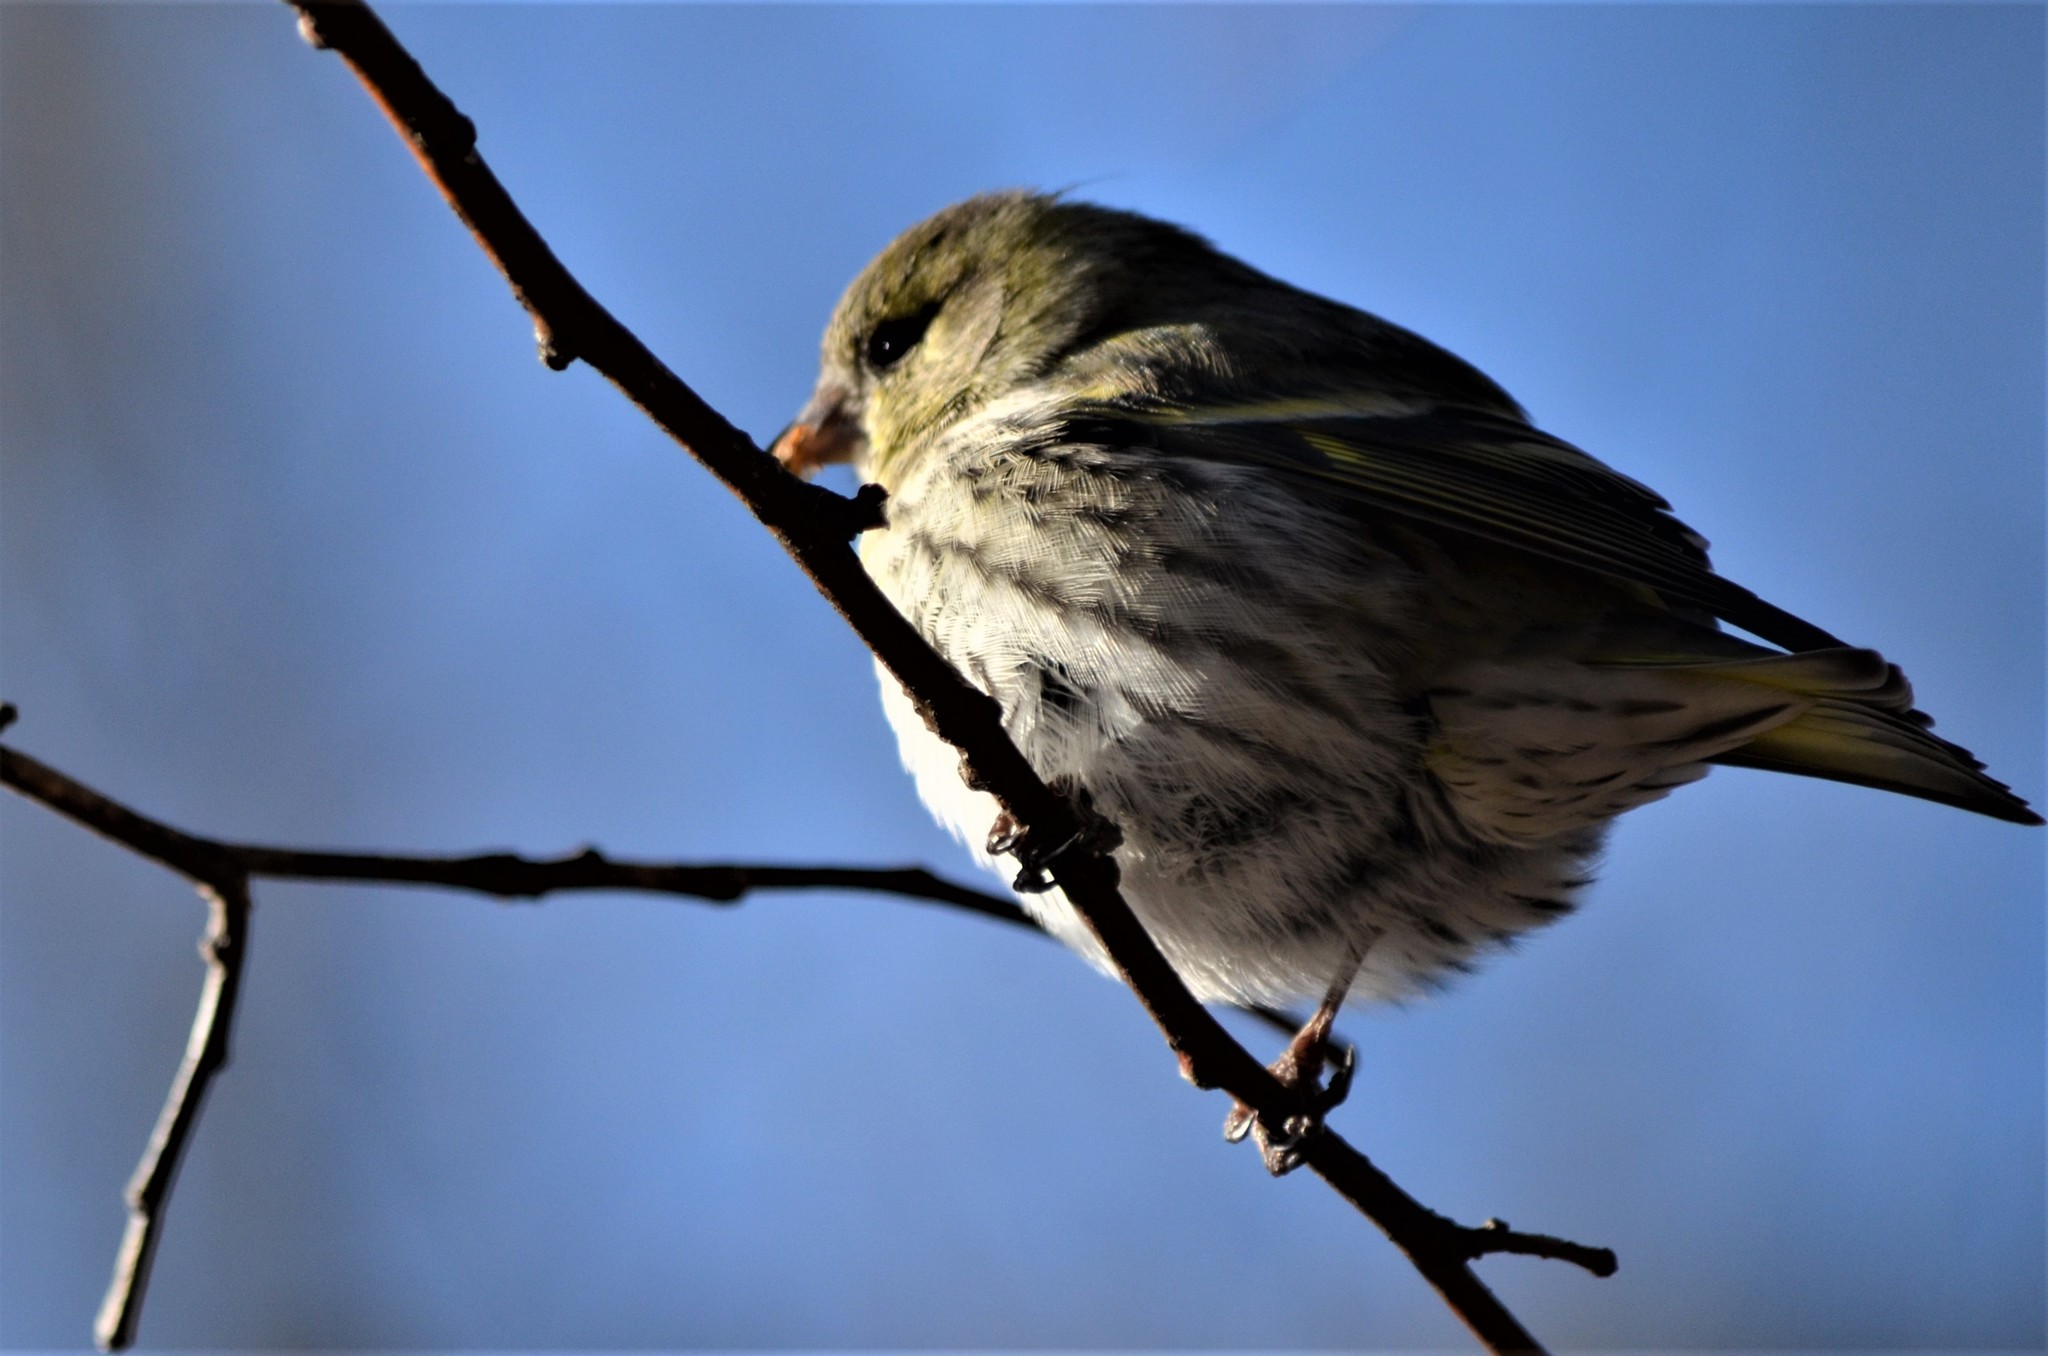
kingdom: Animalia
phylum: Chordata
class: Aves
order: Passeriformes
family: Fringillidae
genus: Spinus
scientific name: Spinus spinus
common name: Eurasian siskin
